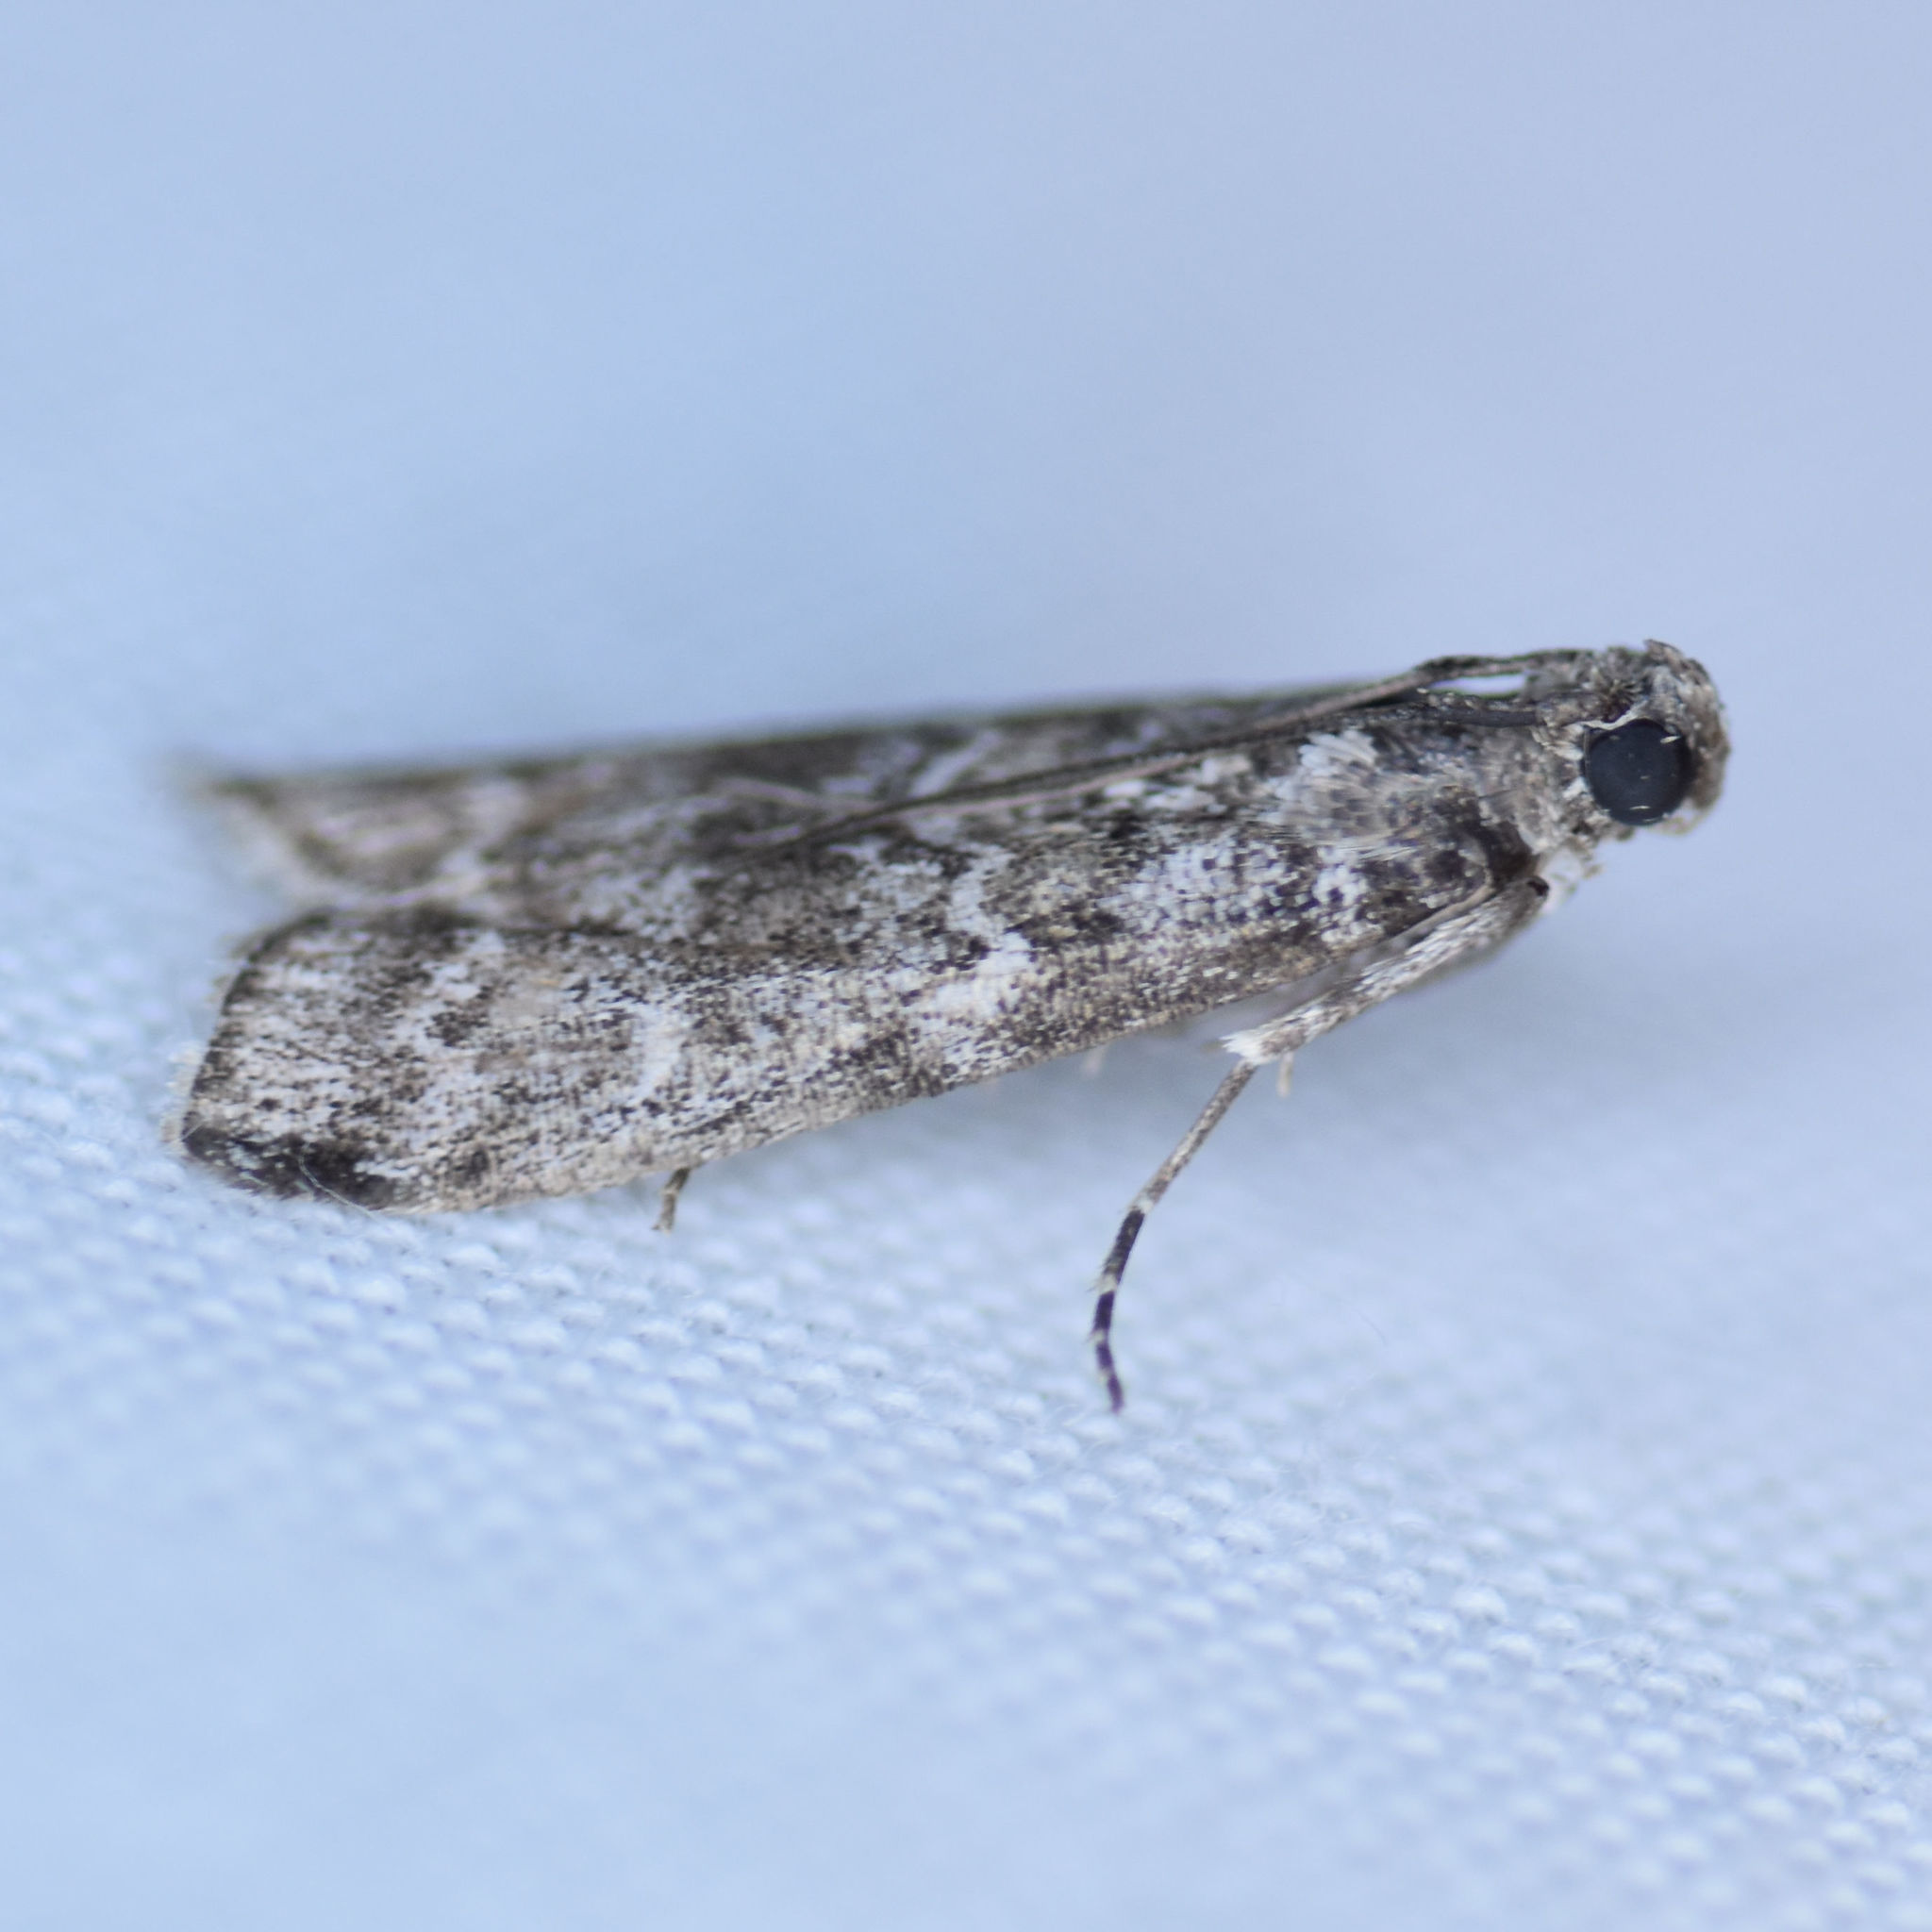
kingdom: Animalia
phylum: Arthropoda
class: Insecta
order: Lepidoptera
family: Pyralidae
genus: Dioryctria
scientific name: Dioryctria reniculelloides
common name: Spruce coneworm moth
